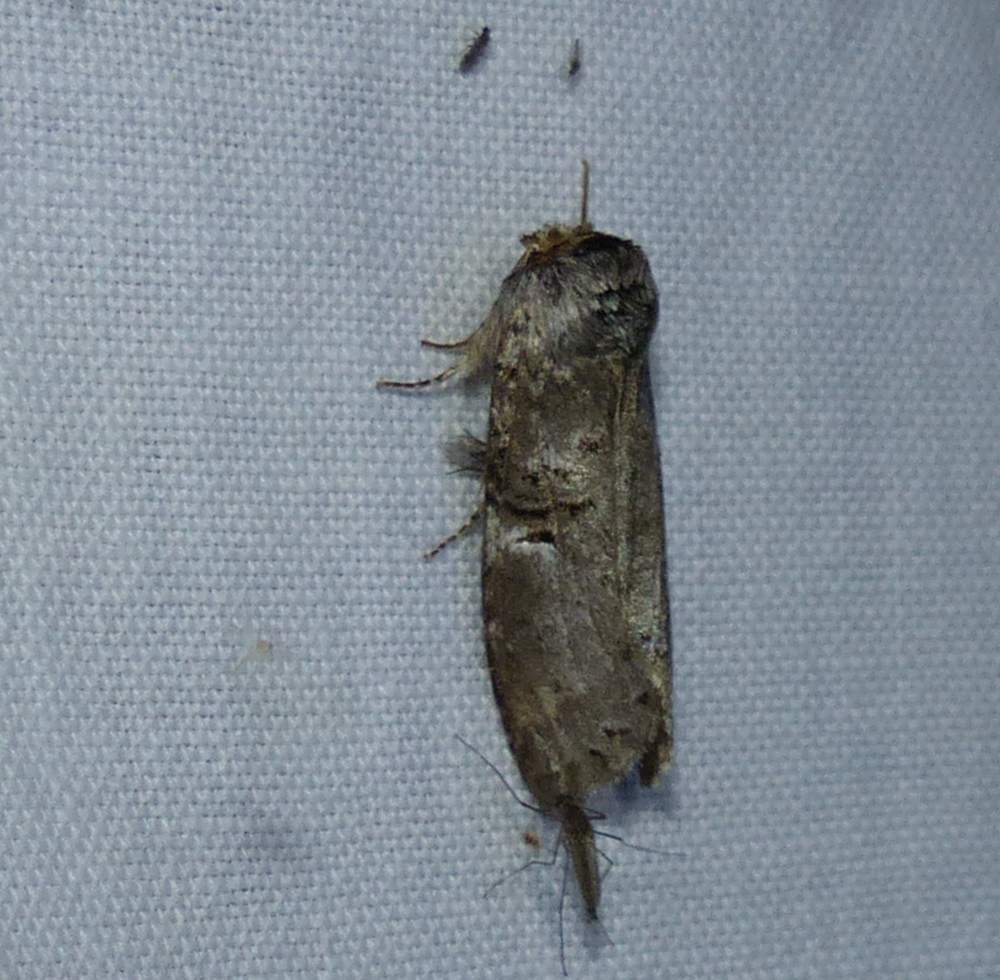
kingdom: Animalia
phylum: Arthropoda
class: Insecta
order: Lepidoptera
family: Notodontidae
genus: Ellida
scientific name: Ellida caniplaga
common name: Linden prominent
